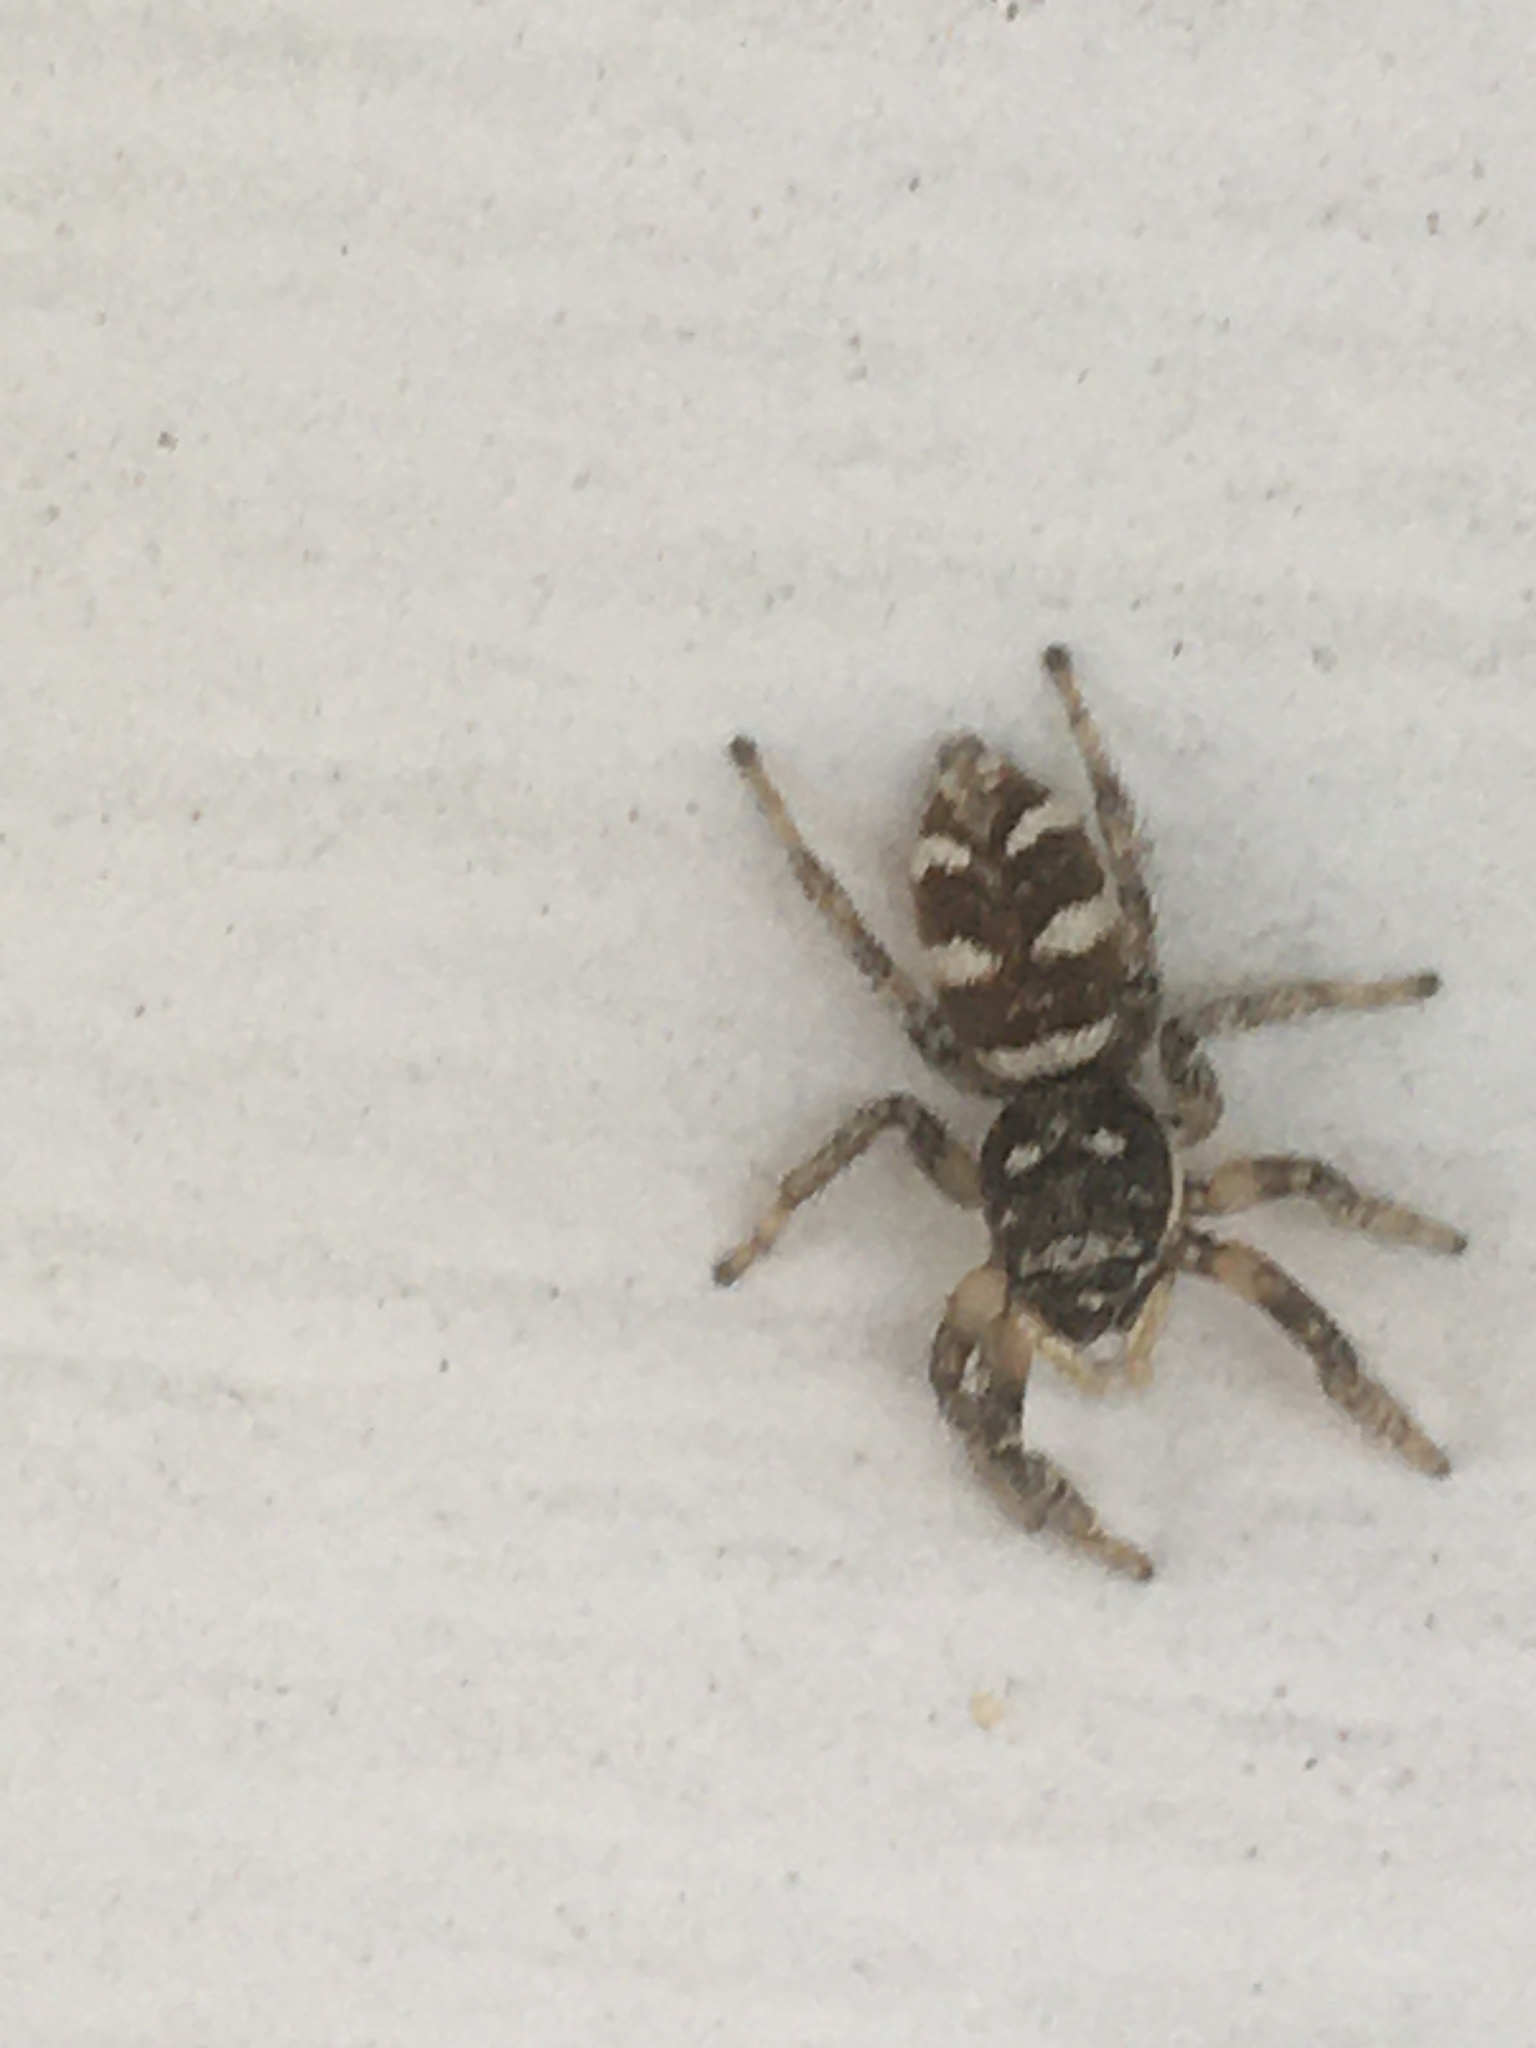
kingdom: Animalia
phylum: Arthropoda
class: Arachnida
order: Araneae
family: Salticidae
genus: Salticus
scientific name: Salticus scenicus
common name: Zebra jumper
